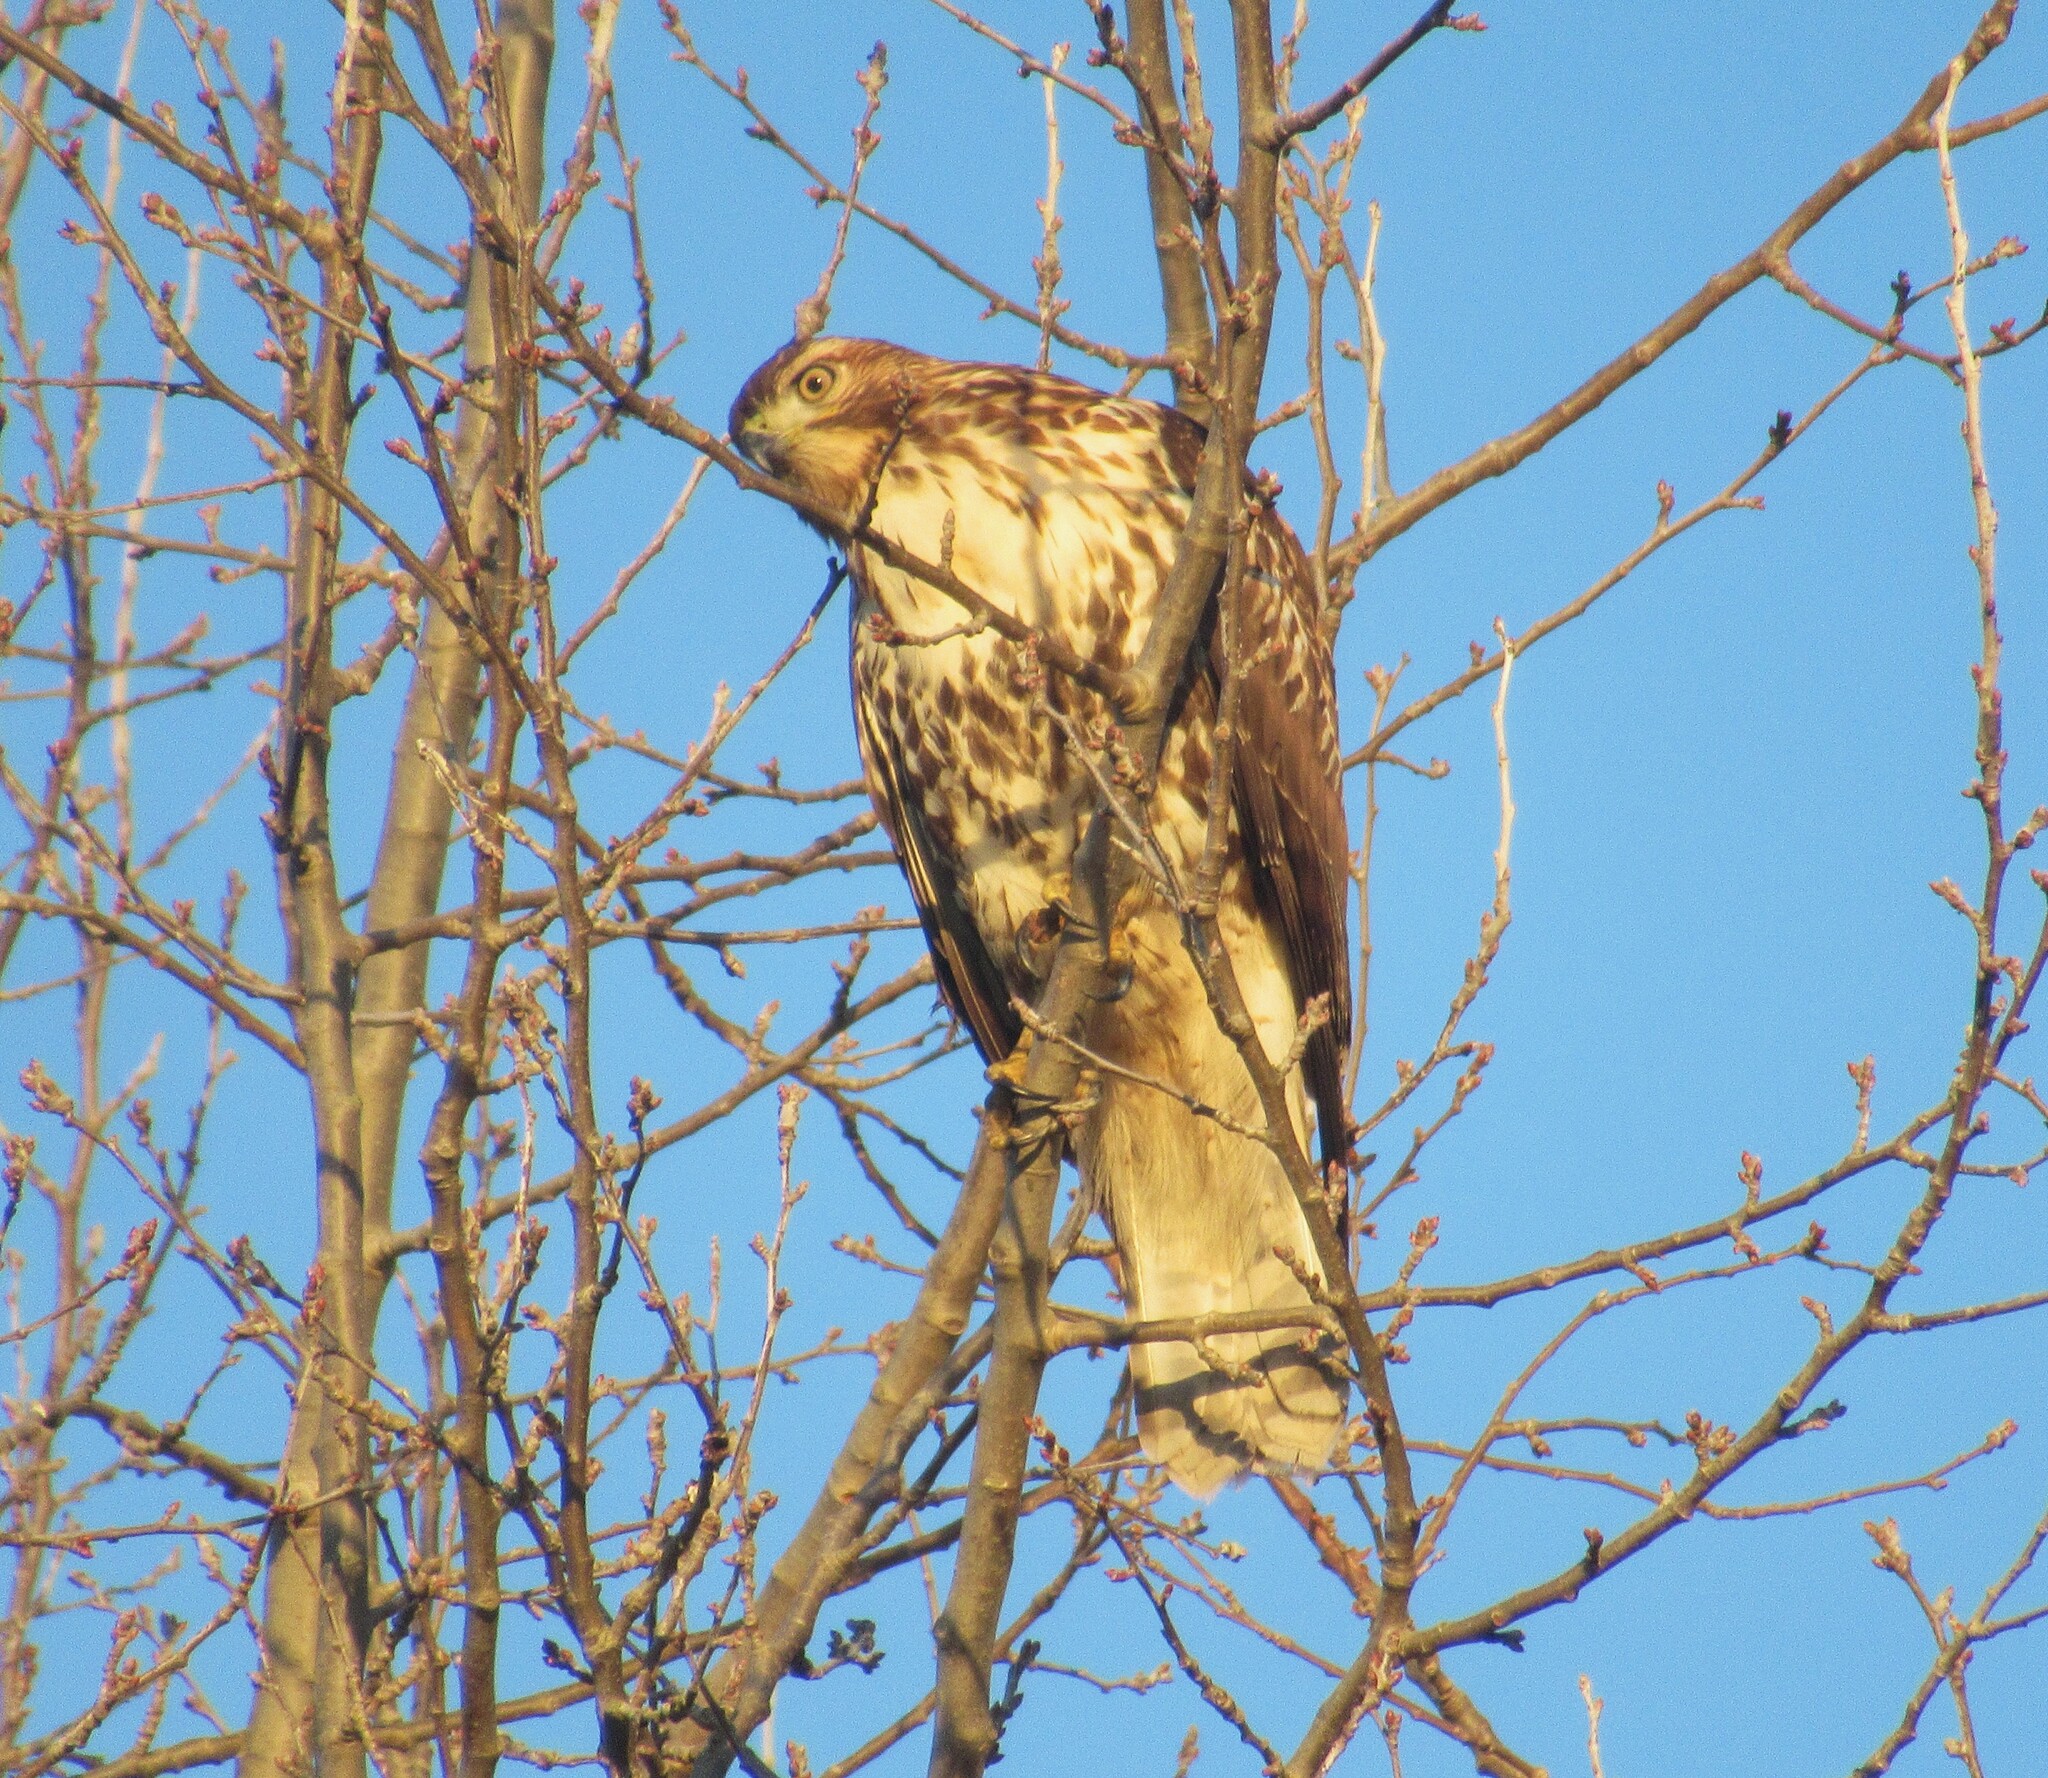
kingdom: Animalia
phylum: Chordata
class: Aves
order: Accipitriformes
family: Accipitridae
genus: Buteo
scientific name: Buteo jamaicensis
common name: Red-tailed hawk
